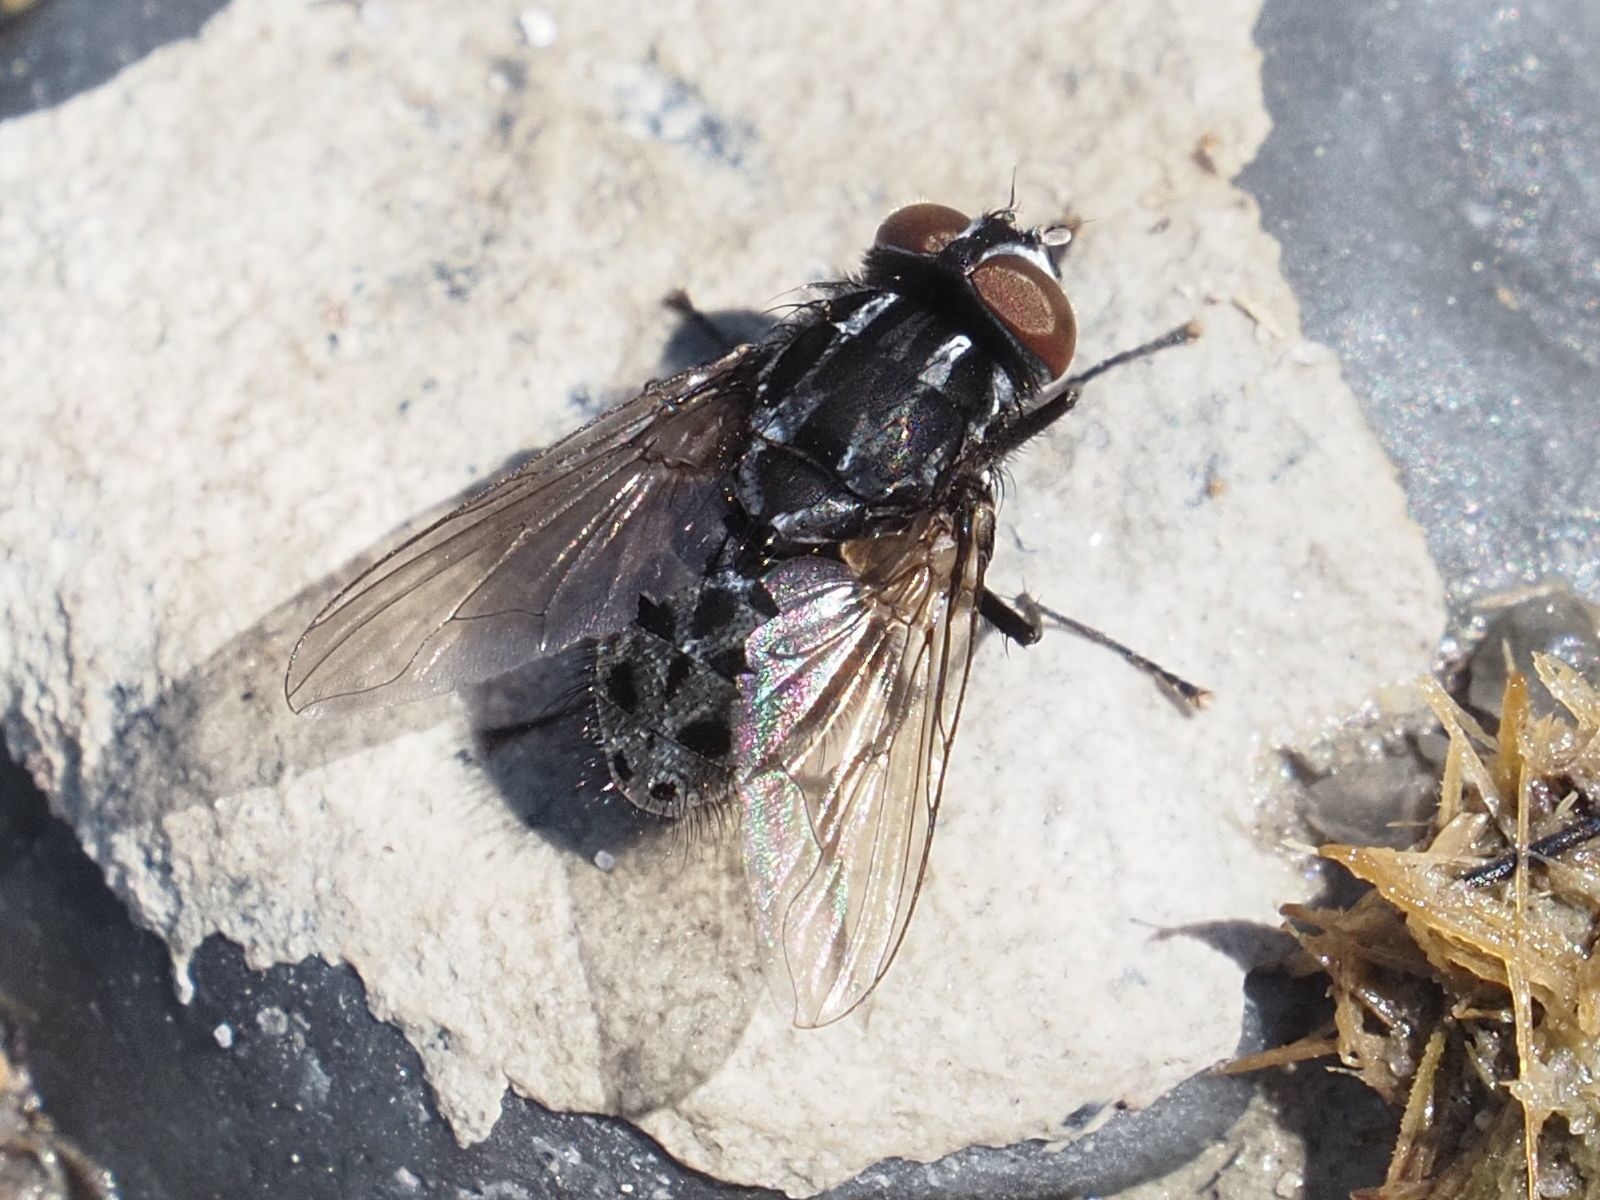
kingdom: Animalia
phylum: Arthropoda
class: Insecta
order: Diptera
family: Muscidae
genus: Graphomya
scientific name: Graphomya maculata
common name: Muscid fly
